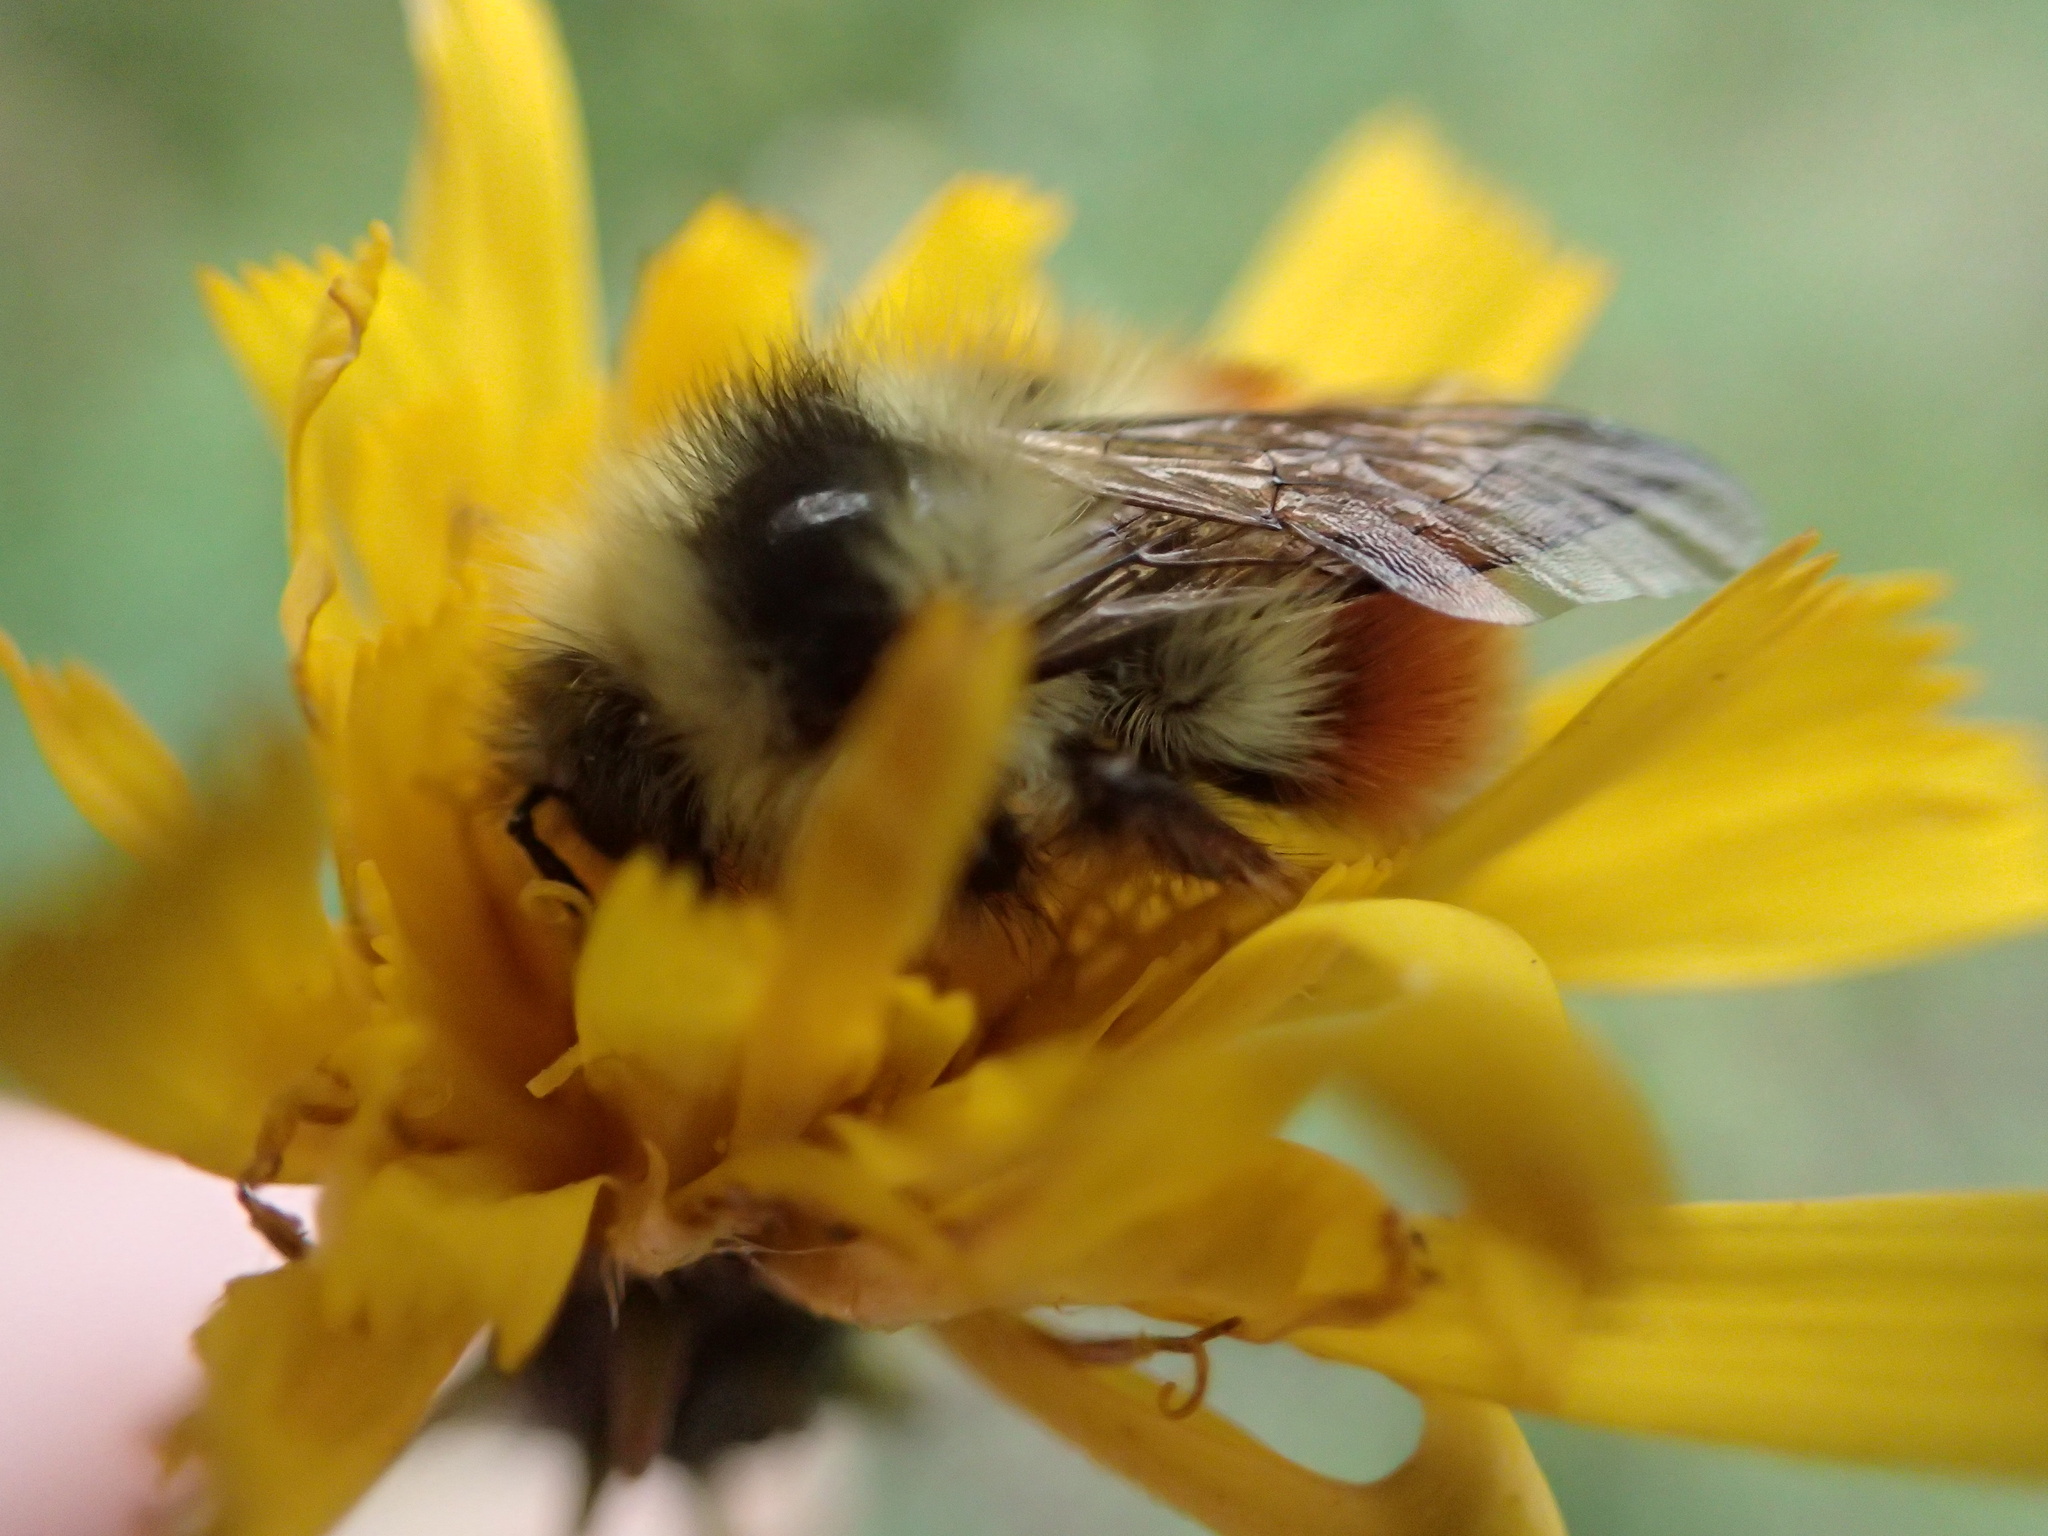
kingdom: Animalia
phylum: Arthropoda
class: Insecta
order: Hymenoptera
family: Apidae
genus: Bombus
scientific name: Bombus ternarius
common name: Tri-colored bumble bee
